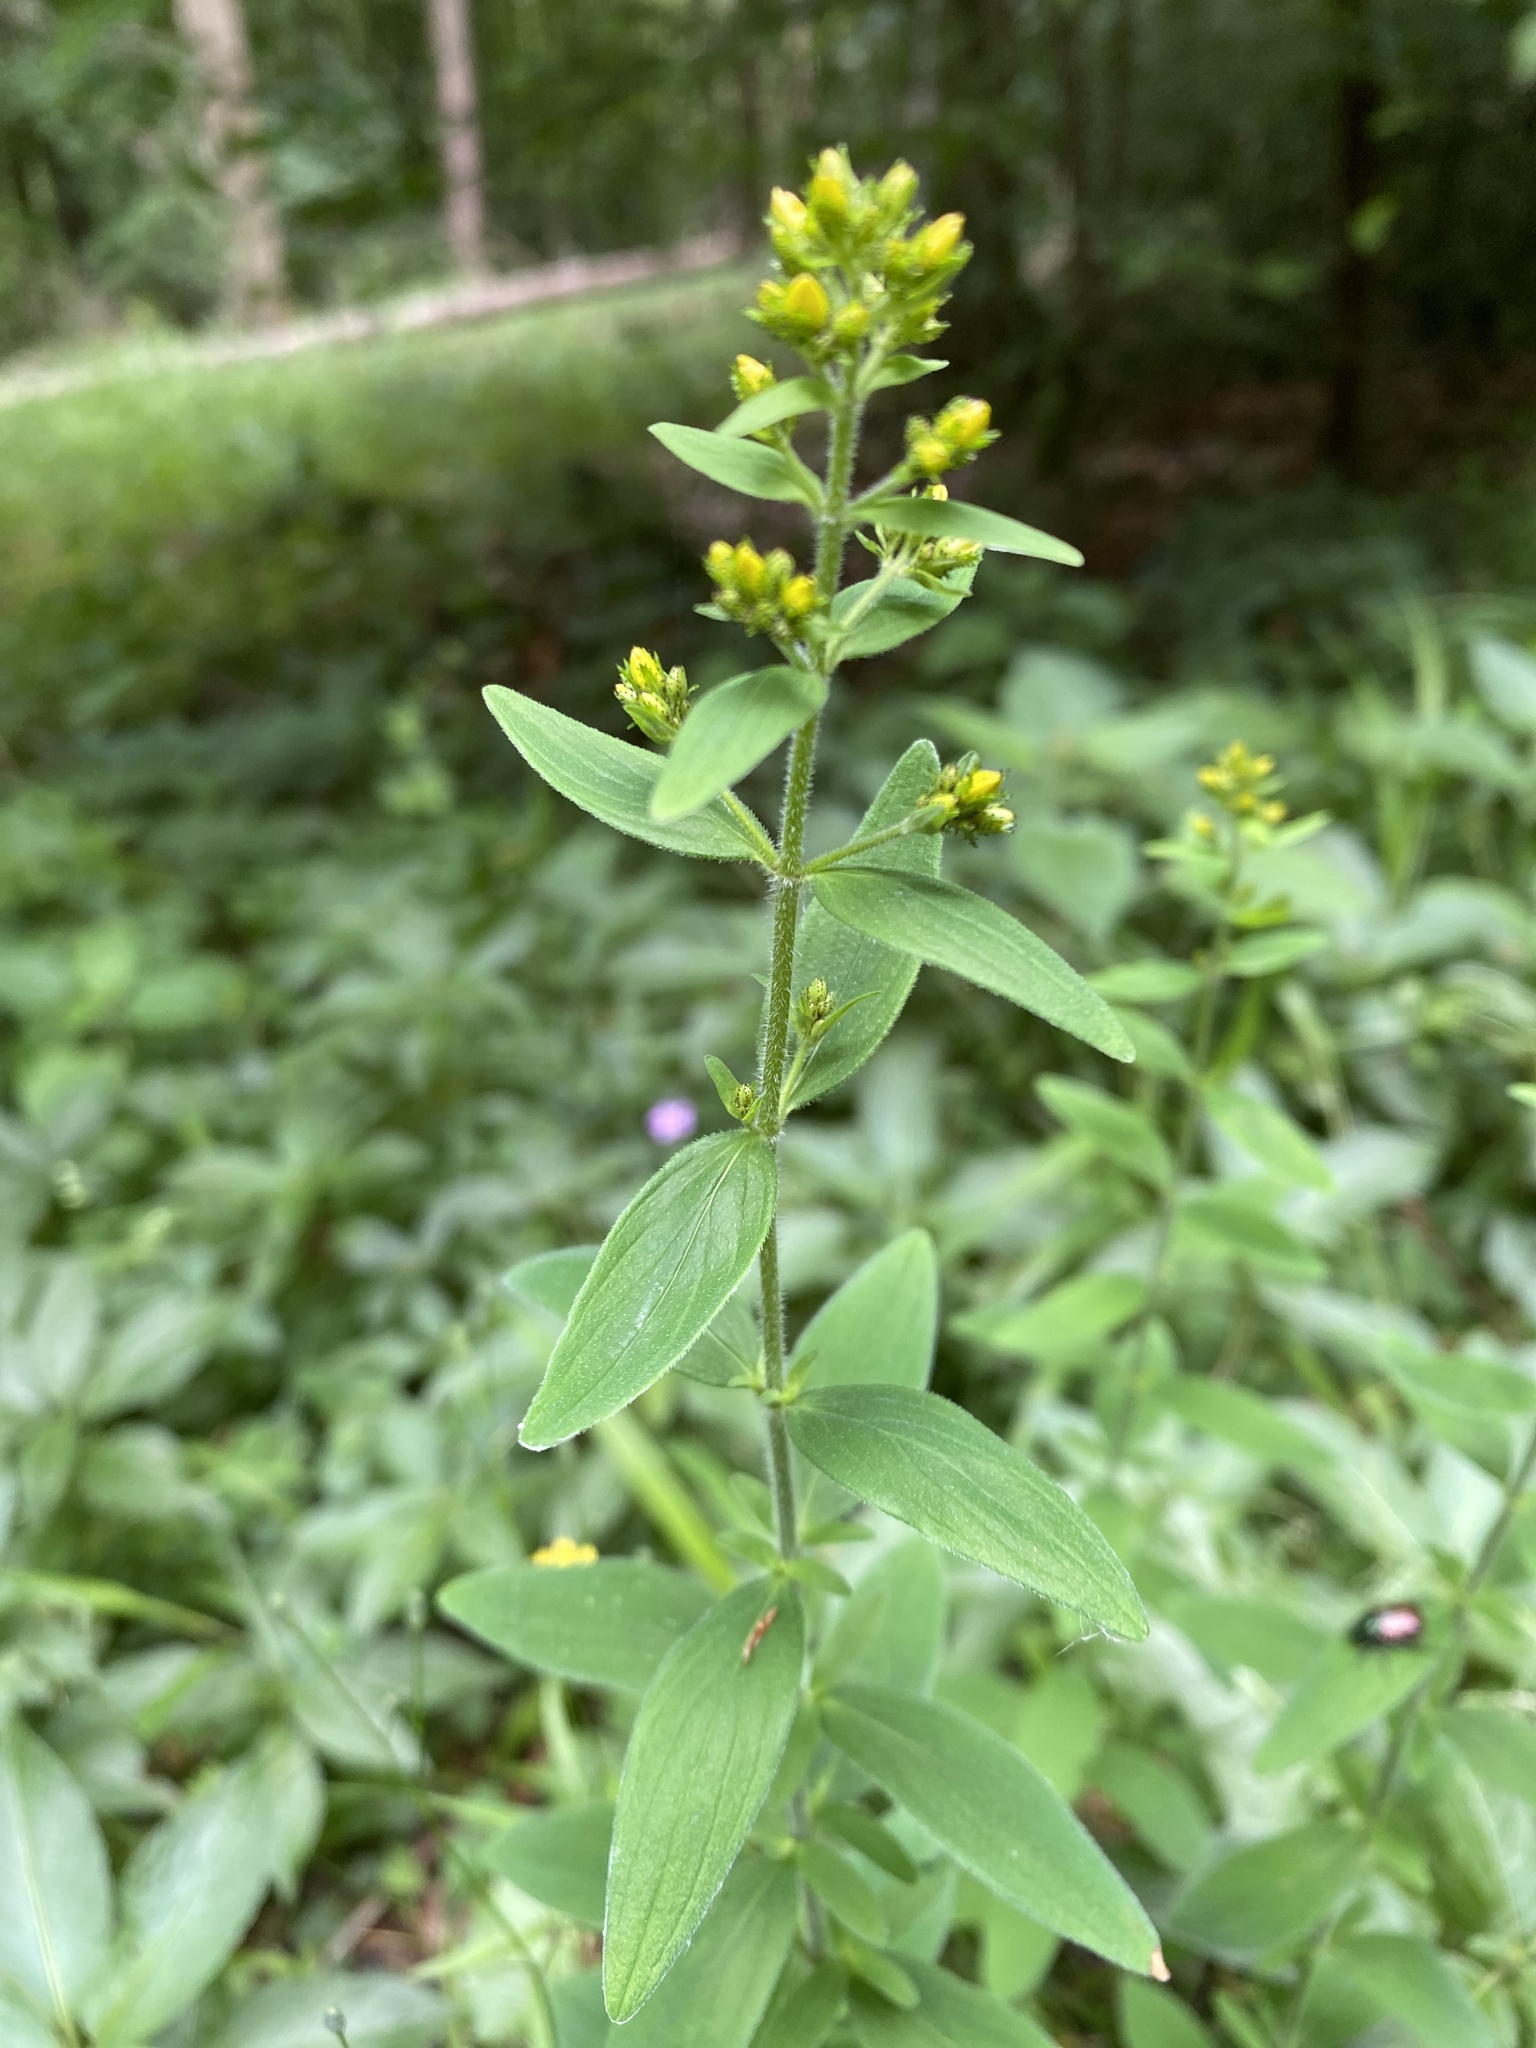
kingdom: Plantae
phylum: Tracheophyta
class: Magnoliopsida
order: Malpighiales
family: Hypericaceae
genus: Hypericum
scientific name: Hypericum hirsutum
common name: Hairy st. john's-wort
